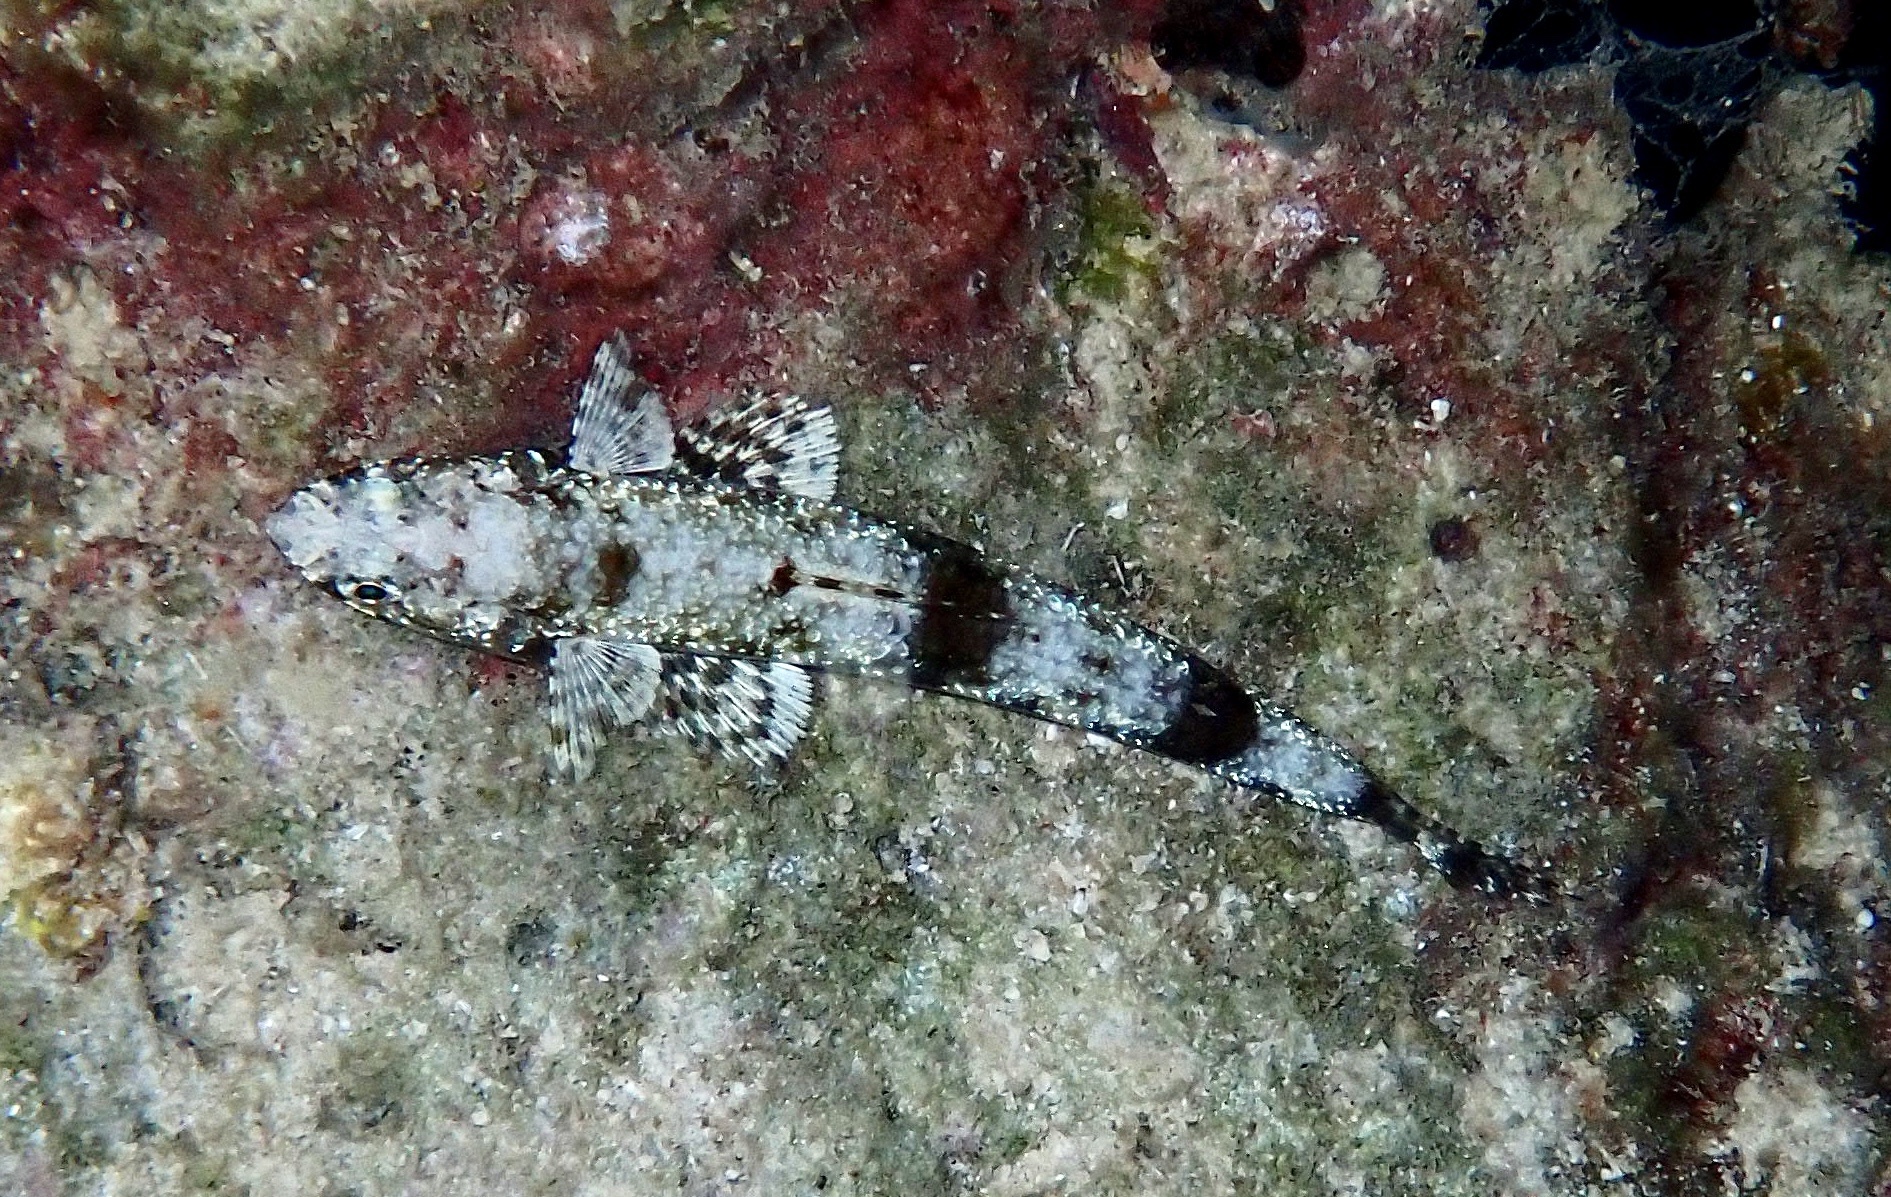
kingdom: Animalia
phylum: Chordata
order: Aulopiformes
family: Synodontidae
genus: Saurida
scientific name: Saurida gracilis
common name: Slender lizardfish
